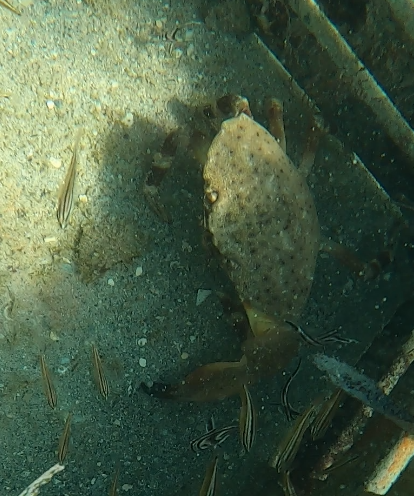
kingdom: Animalia
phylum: Arthropoda
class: Malacostraca
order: Decapoda
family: Menippidae
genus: Menippe
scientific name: Menippe mercenaria
